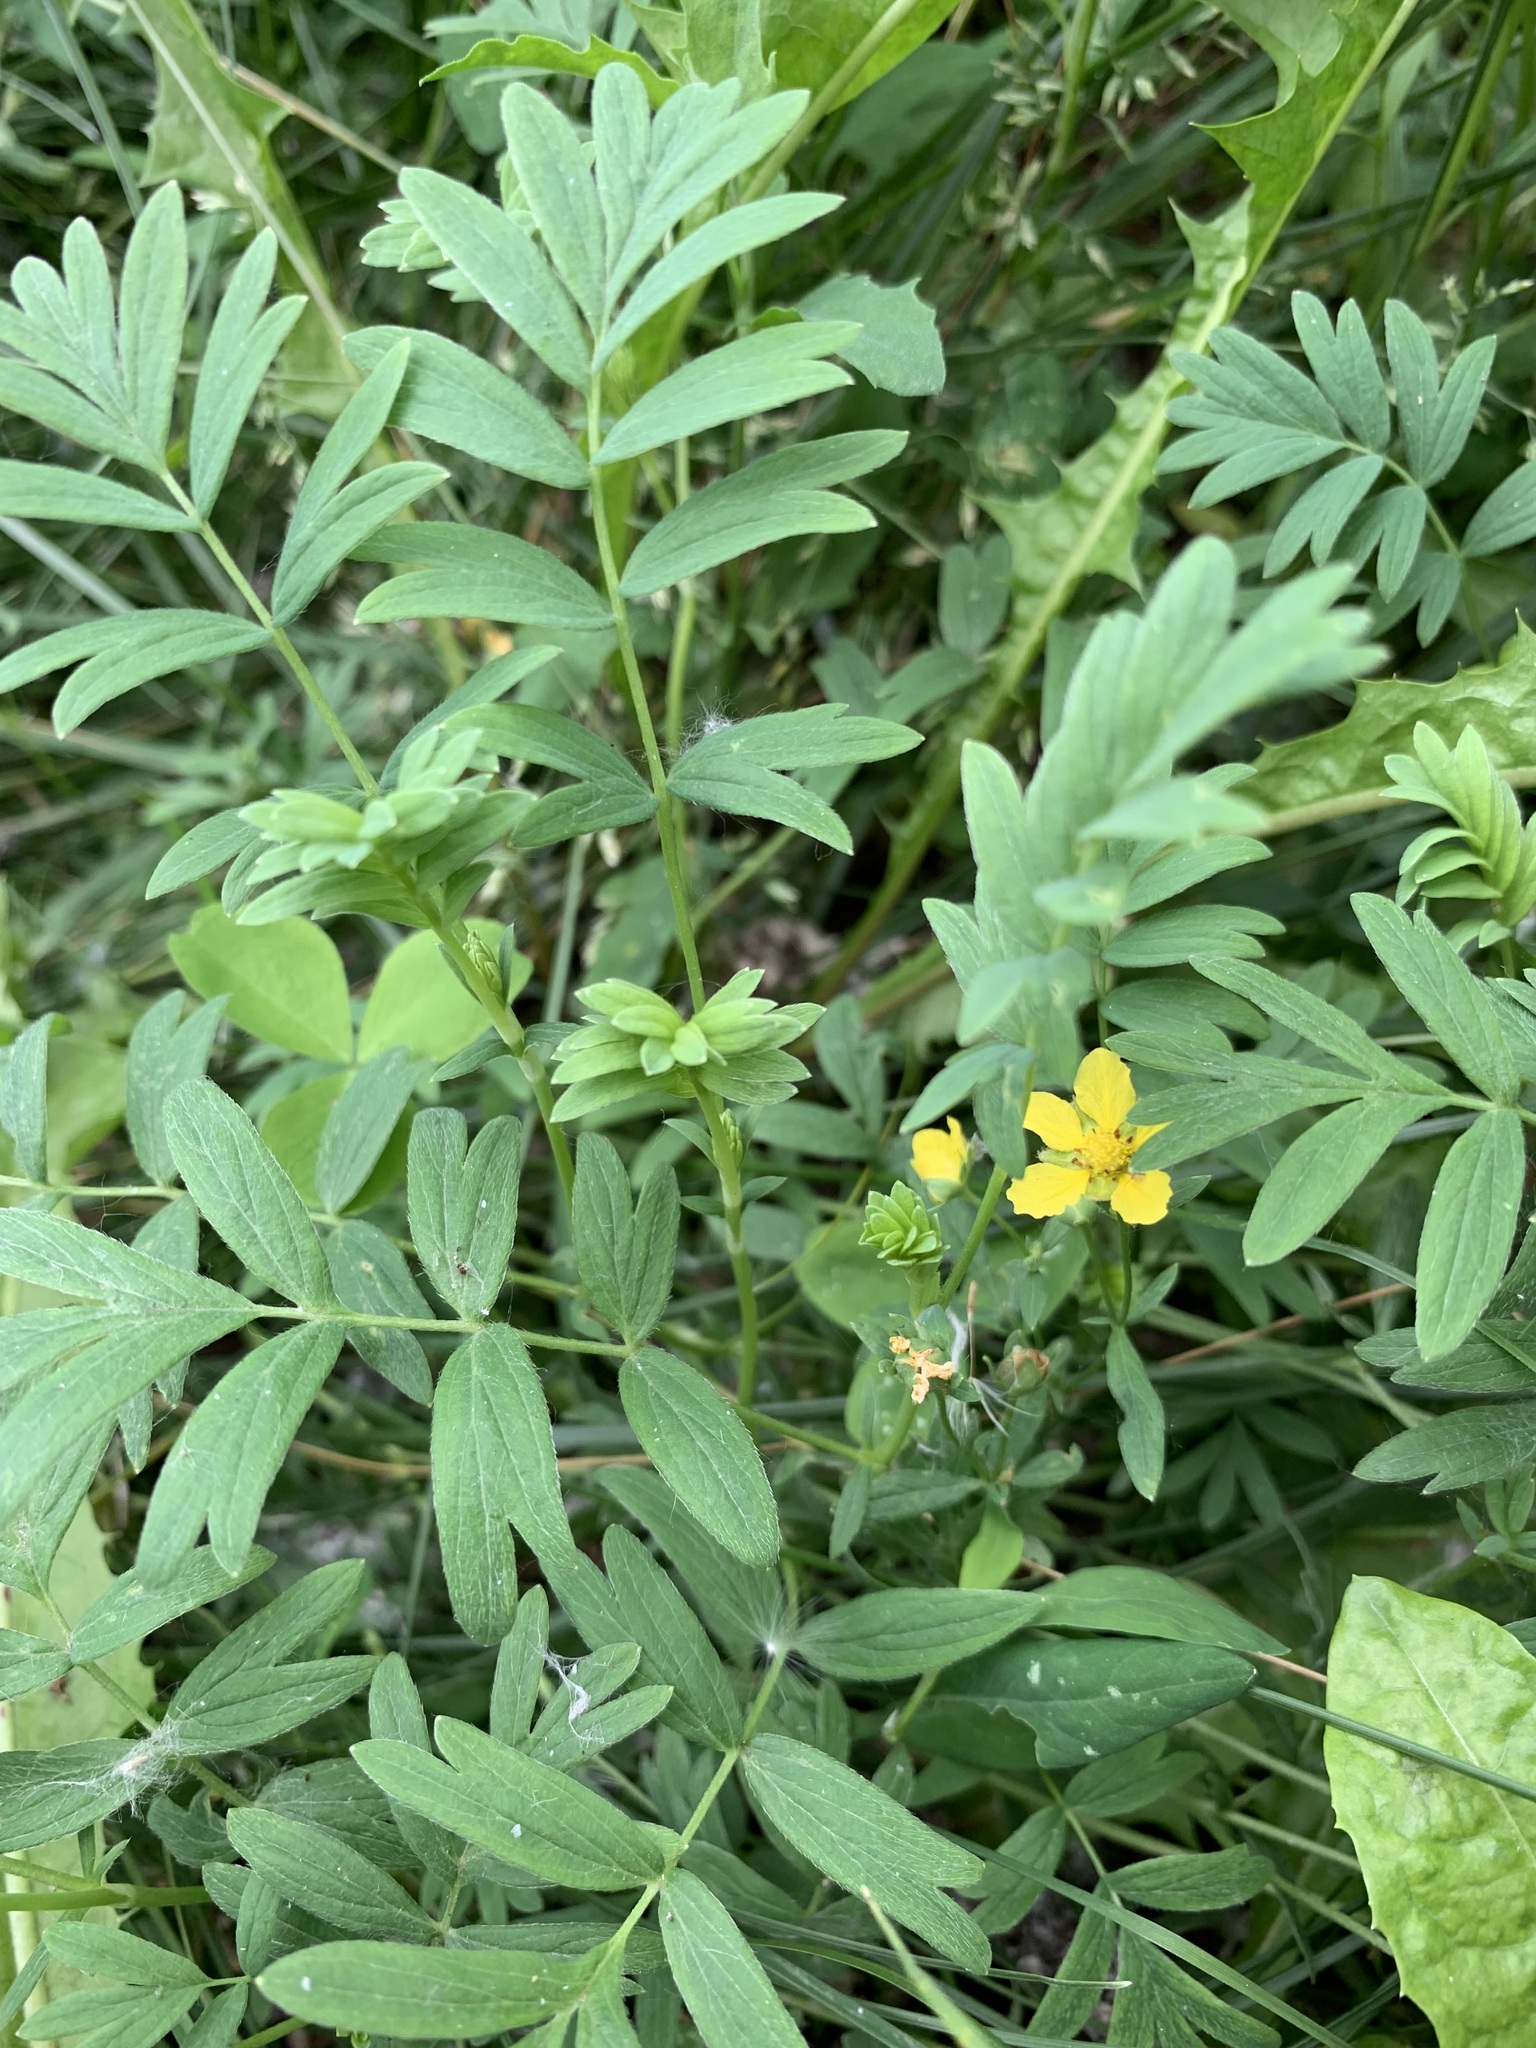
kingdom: Plantae
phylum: Tracheophyta
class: Magnoliopsida
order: Rosales
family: Rosaceae
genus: Sibbaldianthe
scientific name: Sibbaldianthe bifurca
